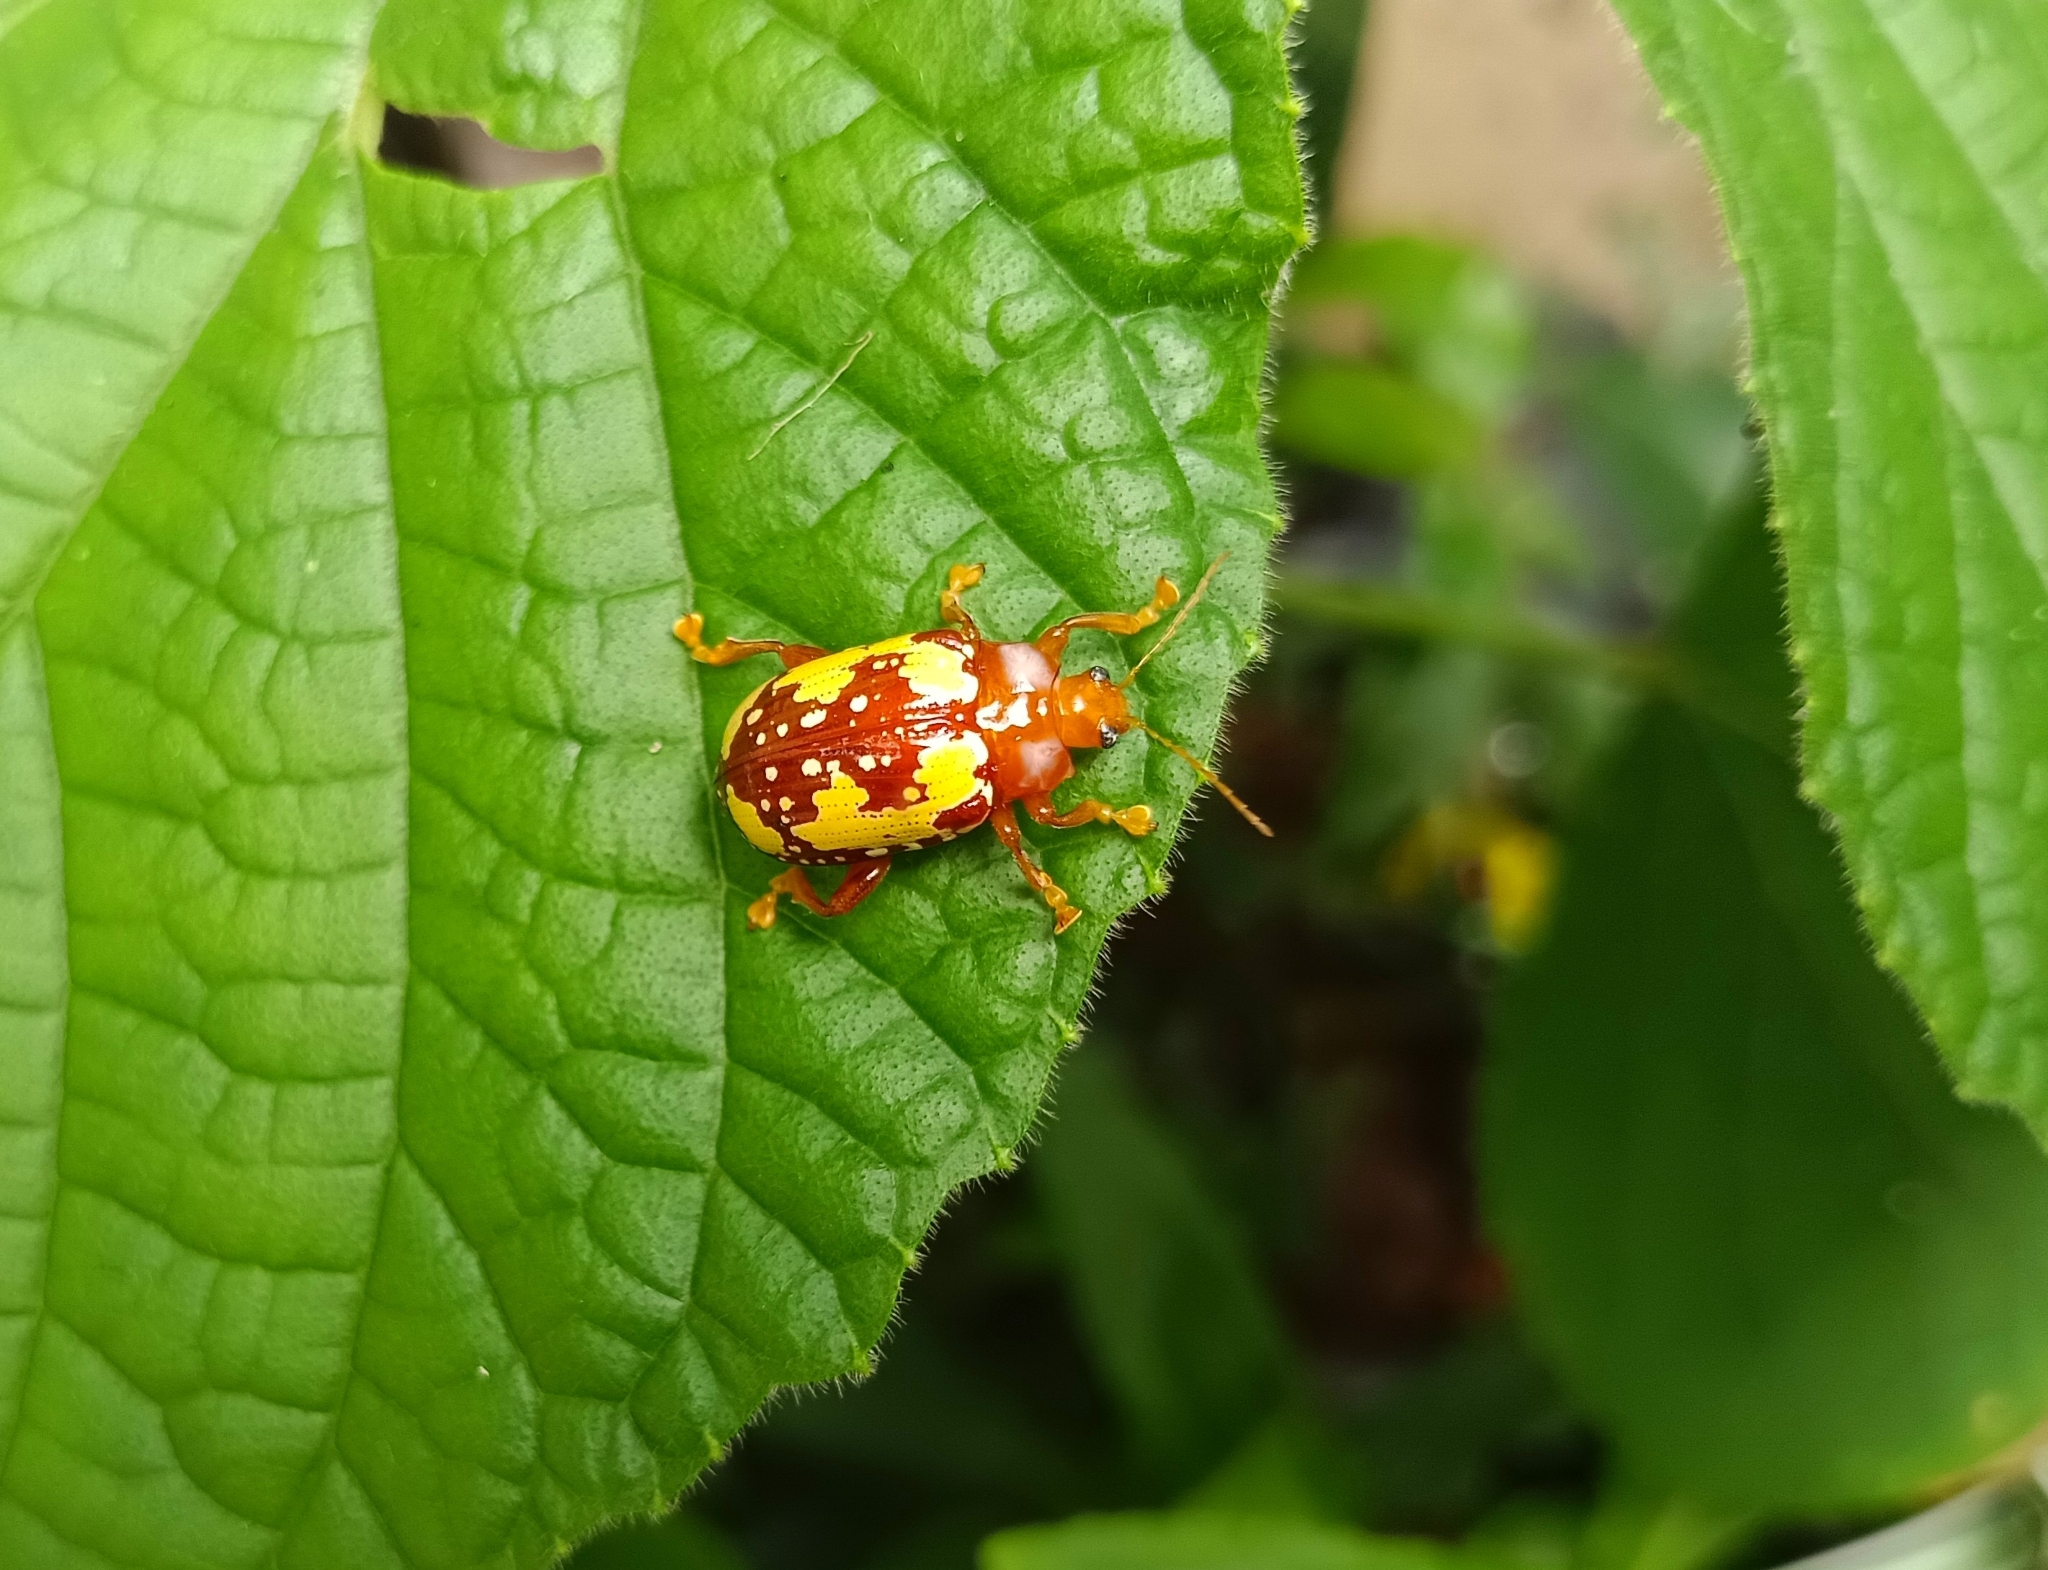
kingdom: Animalia
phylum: Arthropoda
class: Insecta
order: Coleoptera
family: Chrysomelidae
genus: Podontia
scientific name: Podontia
